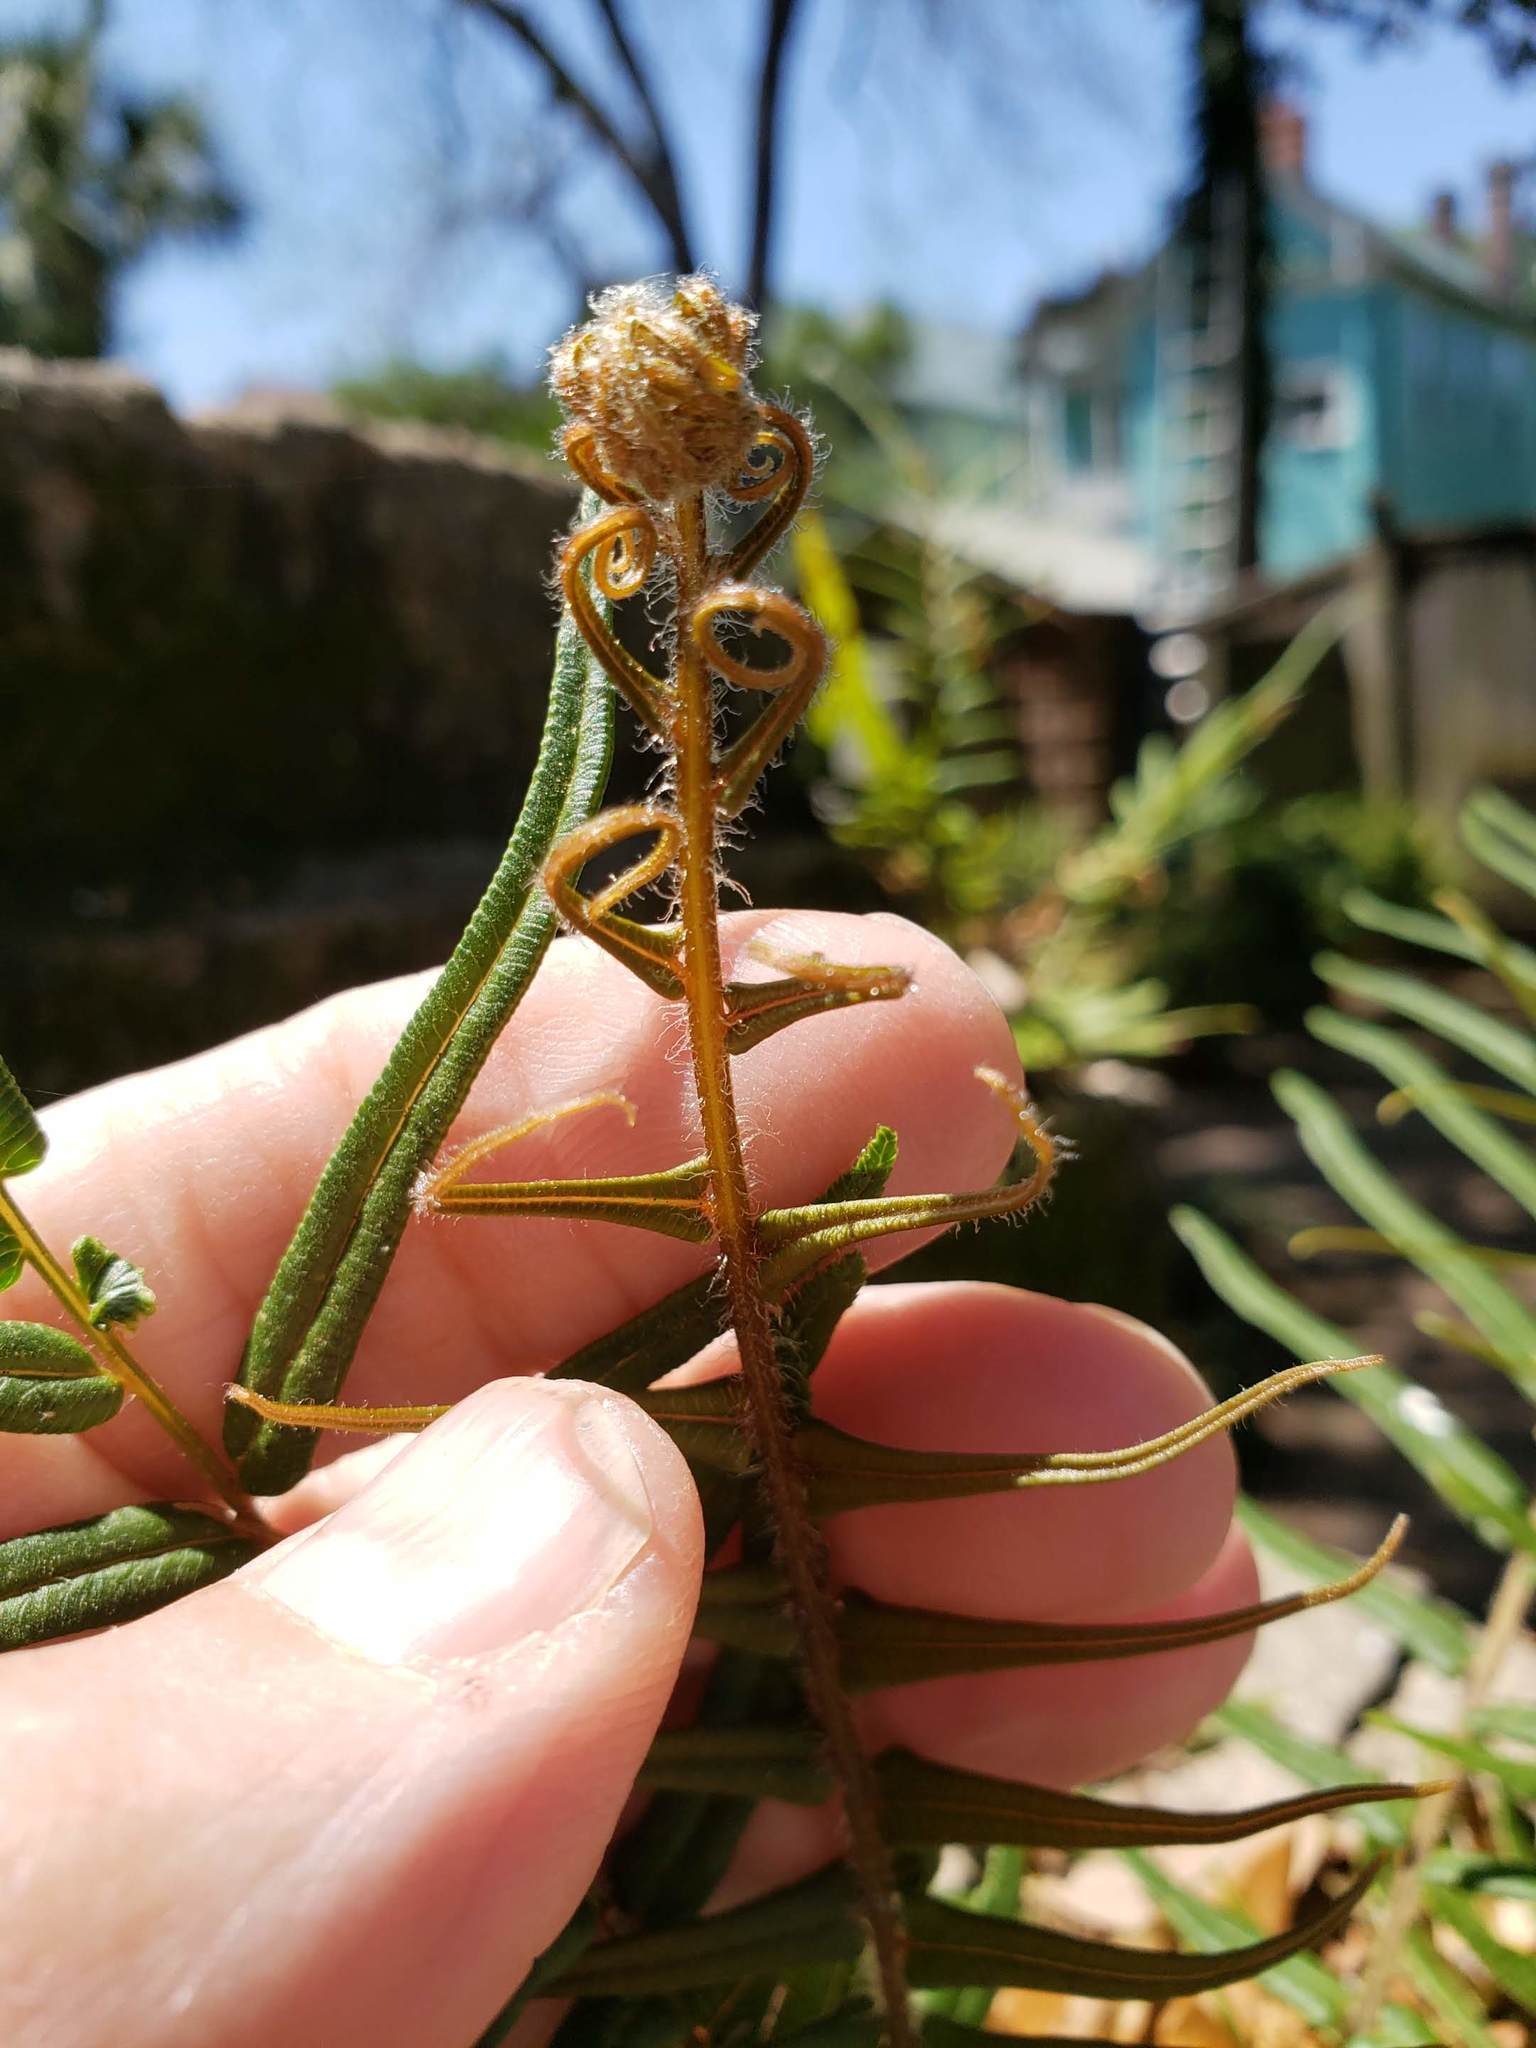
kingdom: Plantae
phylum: Tracheophyta
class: Polypodiopsida
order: Polypodiales
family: Pteridaceae
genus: Pteris
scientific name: Pteris vittata
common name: Ladder brake
